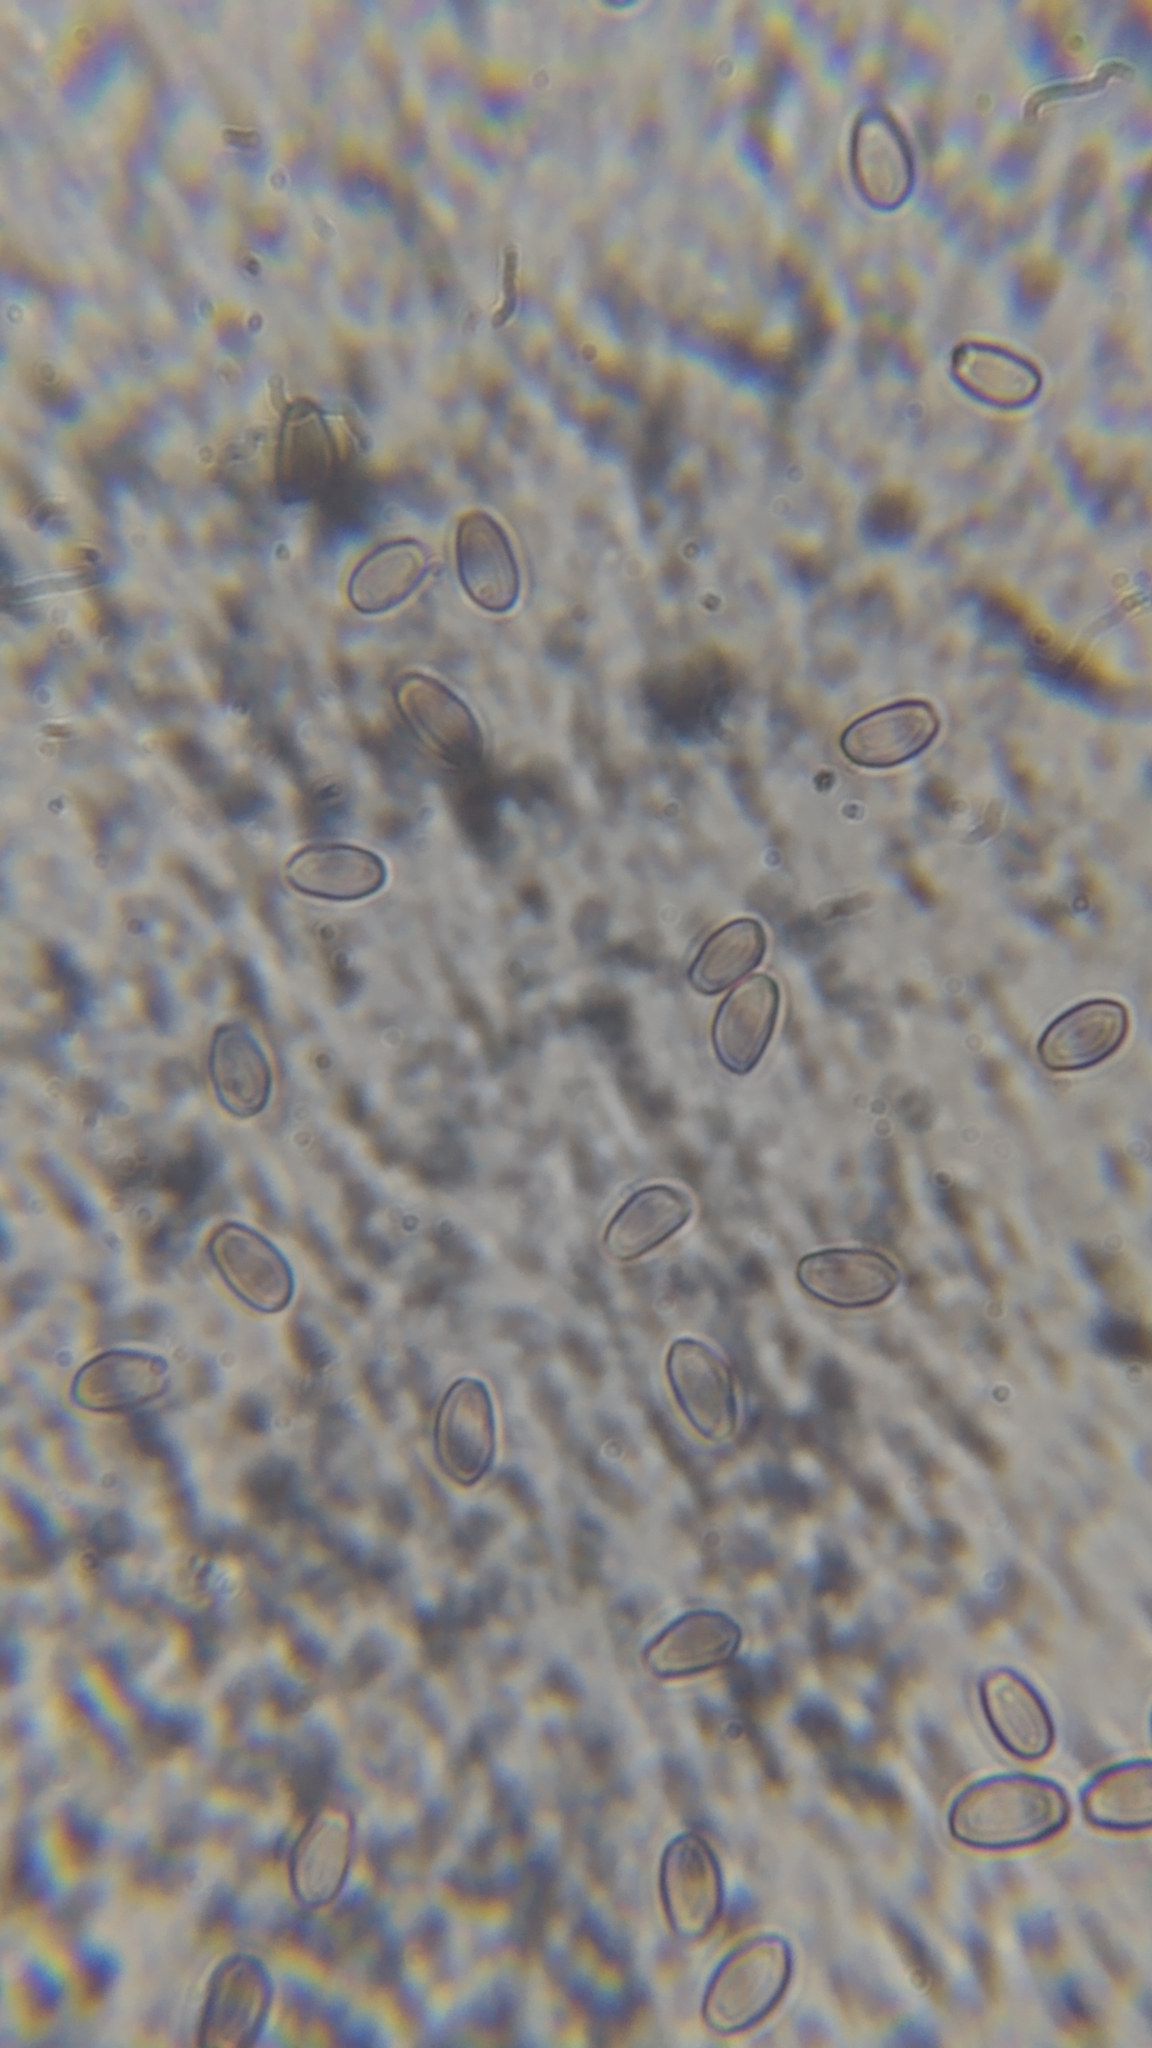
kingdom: Fungi
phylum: Basidiomycota
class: Agaricomycetes
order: Agaricales
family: Strophariaceae
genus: Hypholoma
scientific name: Hypholoma fasciculare
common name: Sulphur tuft
